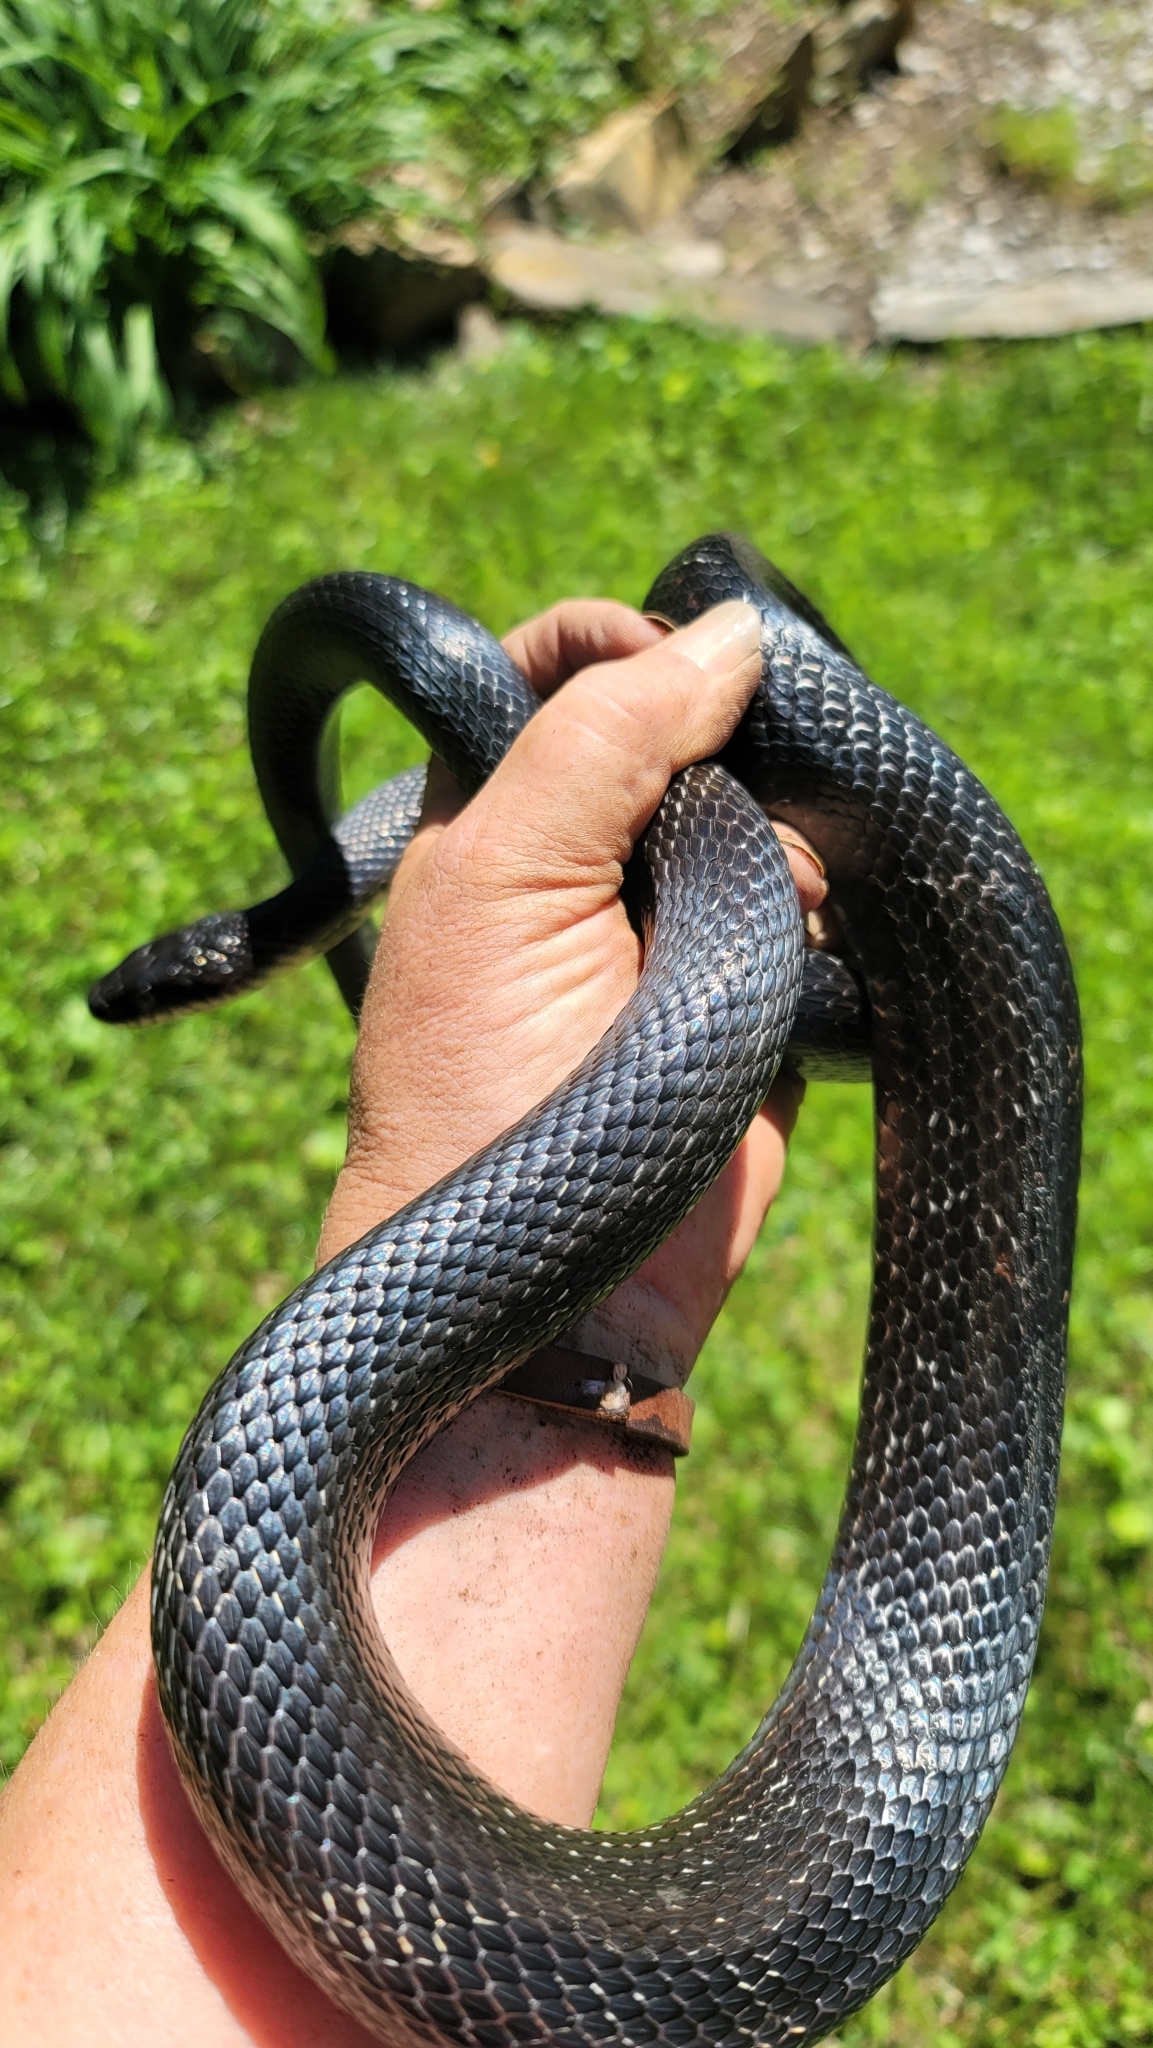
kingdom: Animalia
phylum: Chordata
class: Squamata
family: Colubridae
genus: Pantherophis
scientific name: Pantherophis
